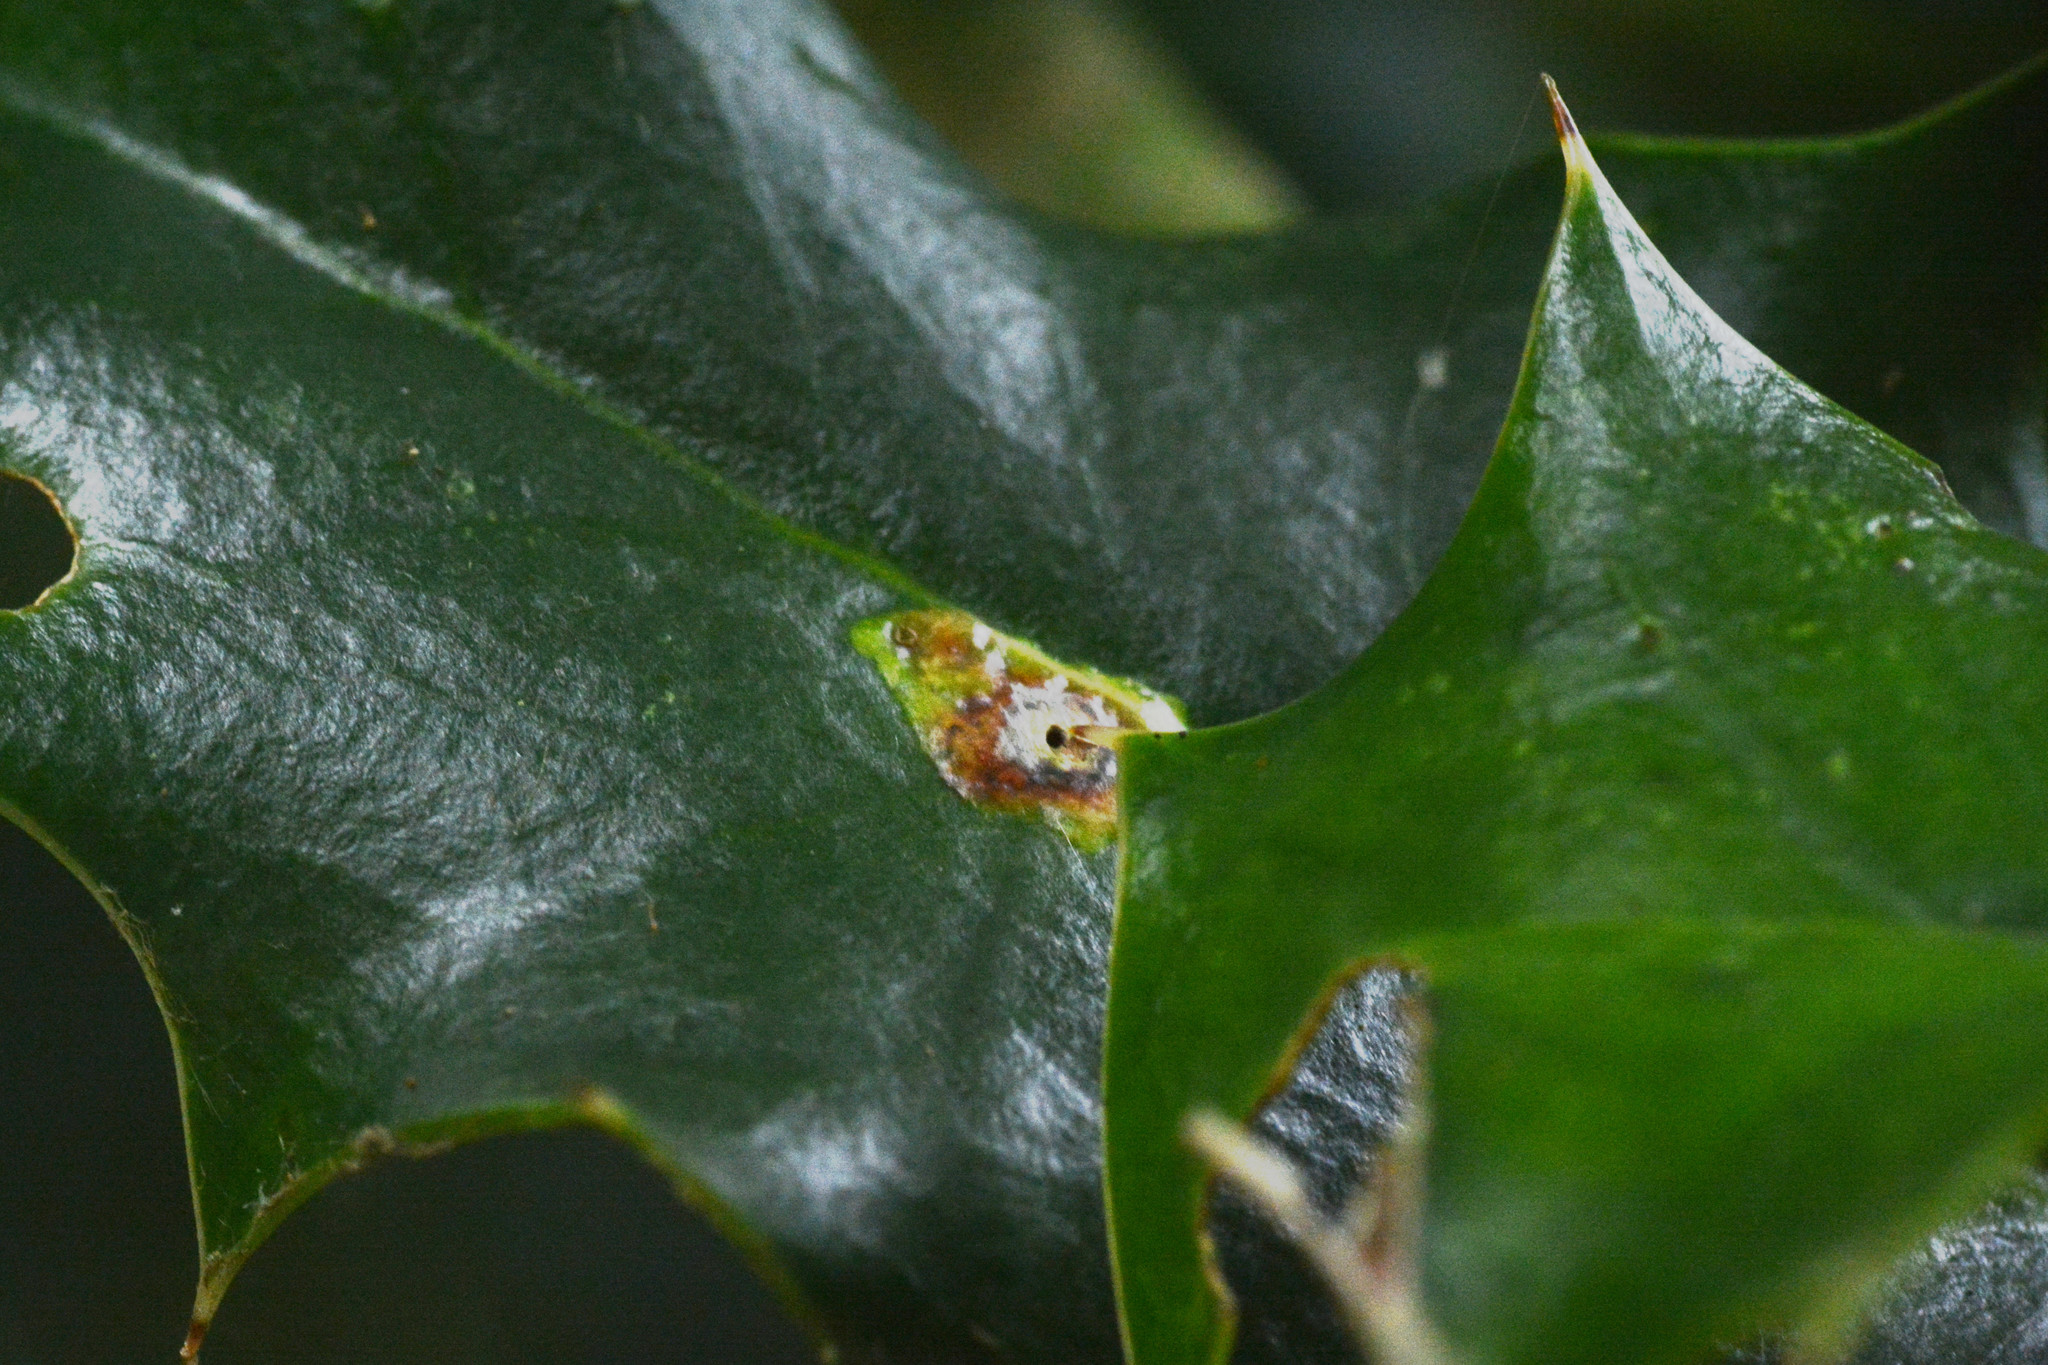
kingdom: Animalia
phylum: Arthropoda
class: Insecta
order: Diptera
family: Agromyzidae
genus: Phytomyza
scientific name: Phytomyza ilicis
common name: Holly leafminer
